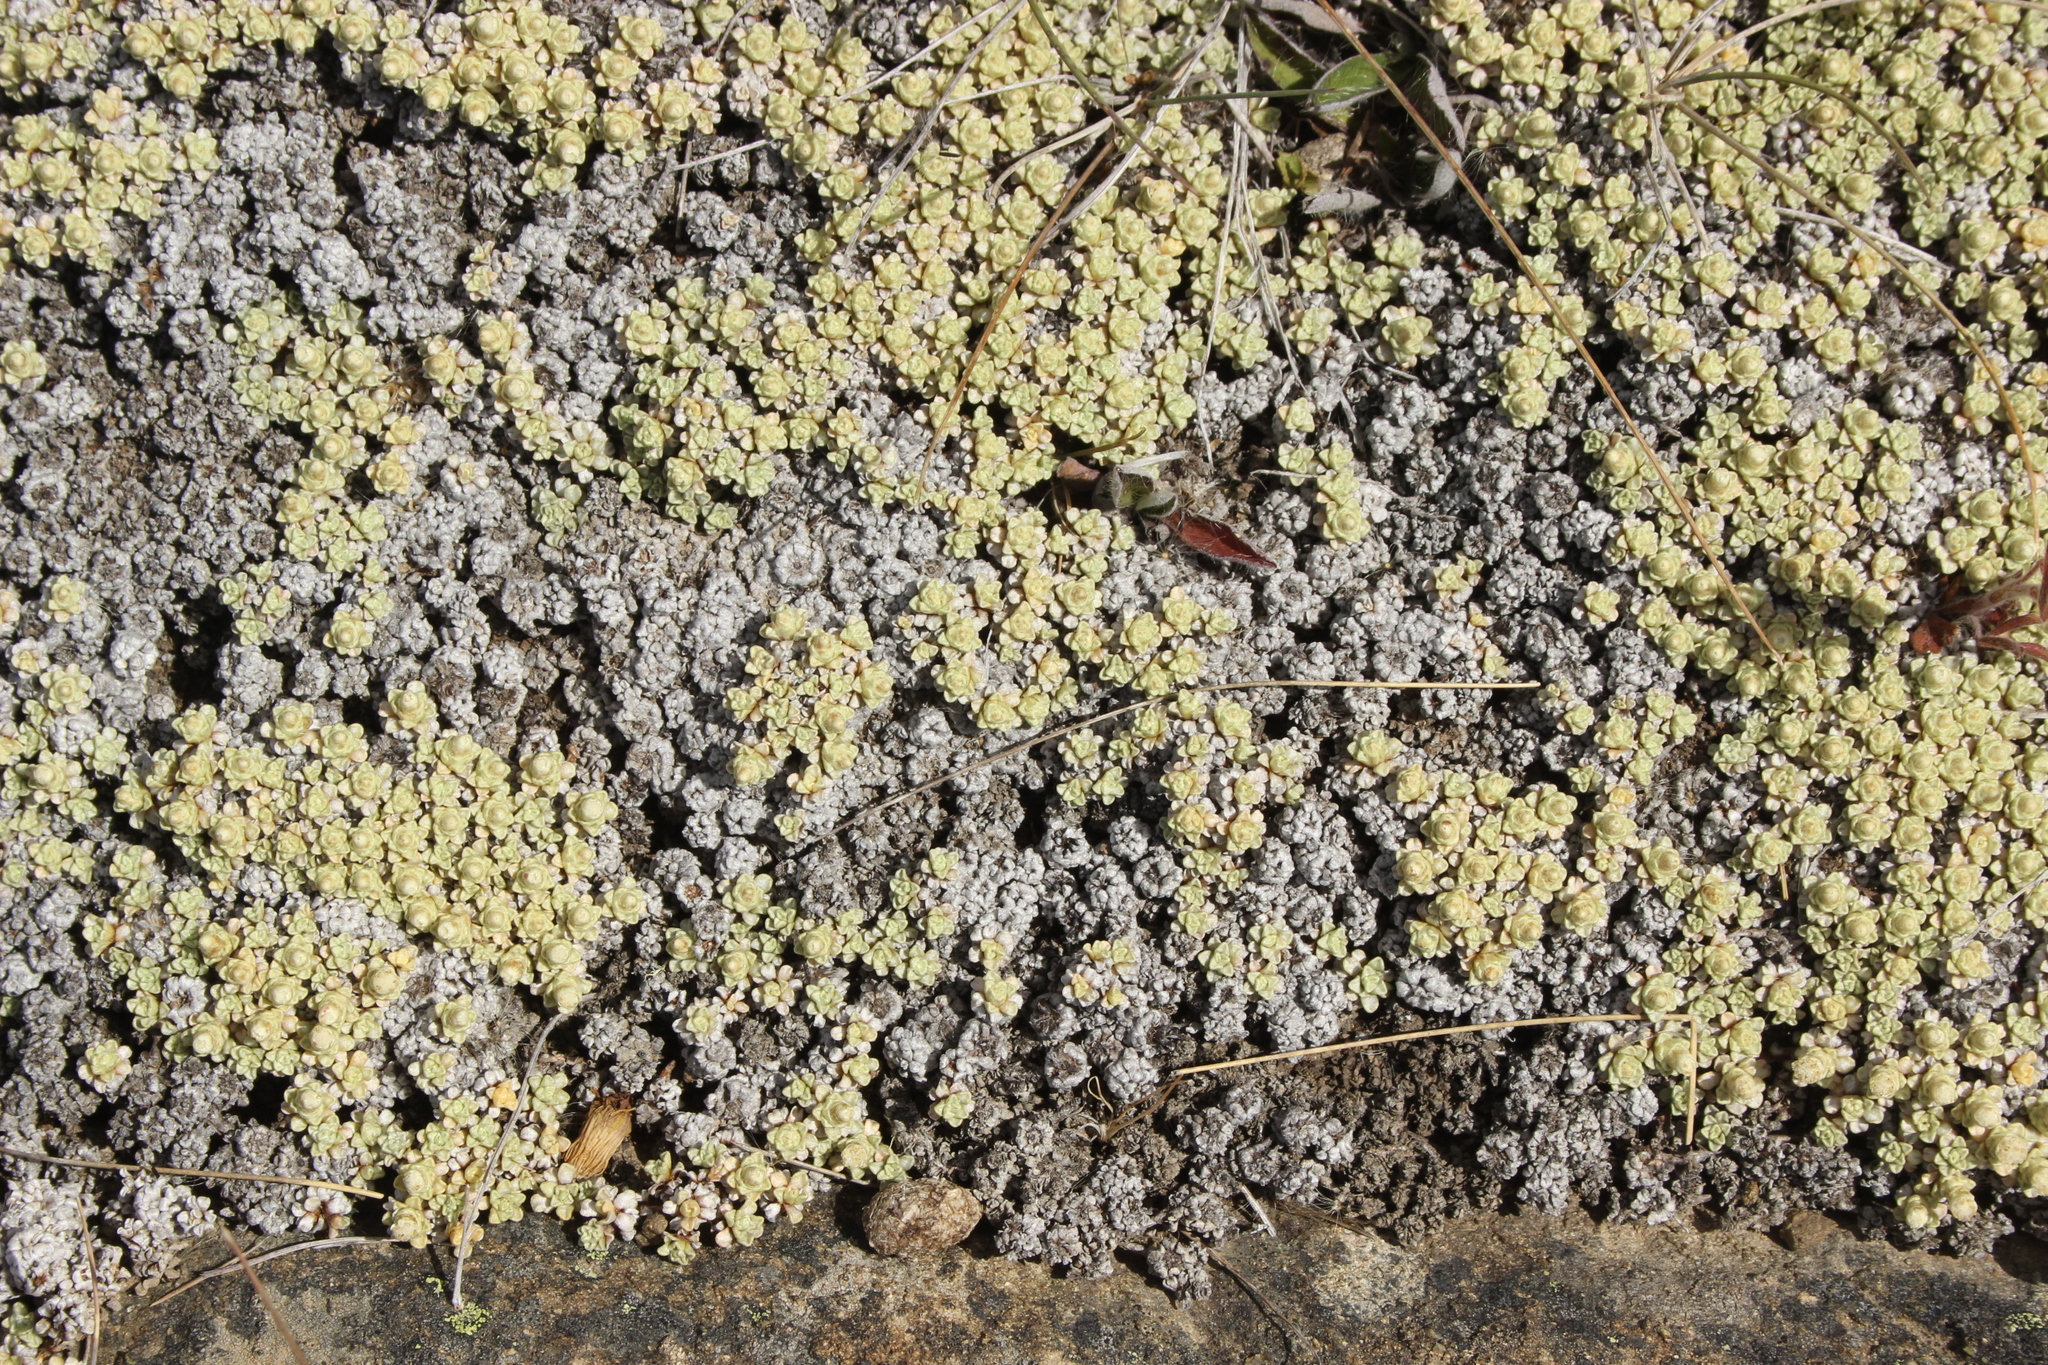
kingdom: Plantae
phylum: Tracheophyta
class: Magnoliopsida
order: Asterales
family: Asteraceae
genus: Raoulia
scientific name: Raoulia australis
